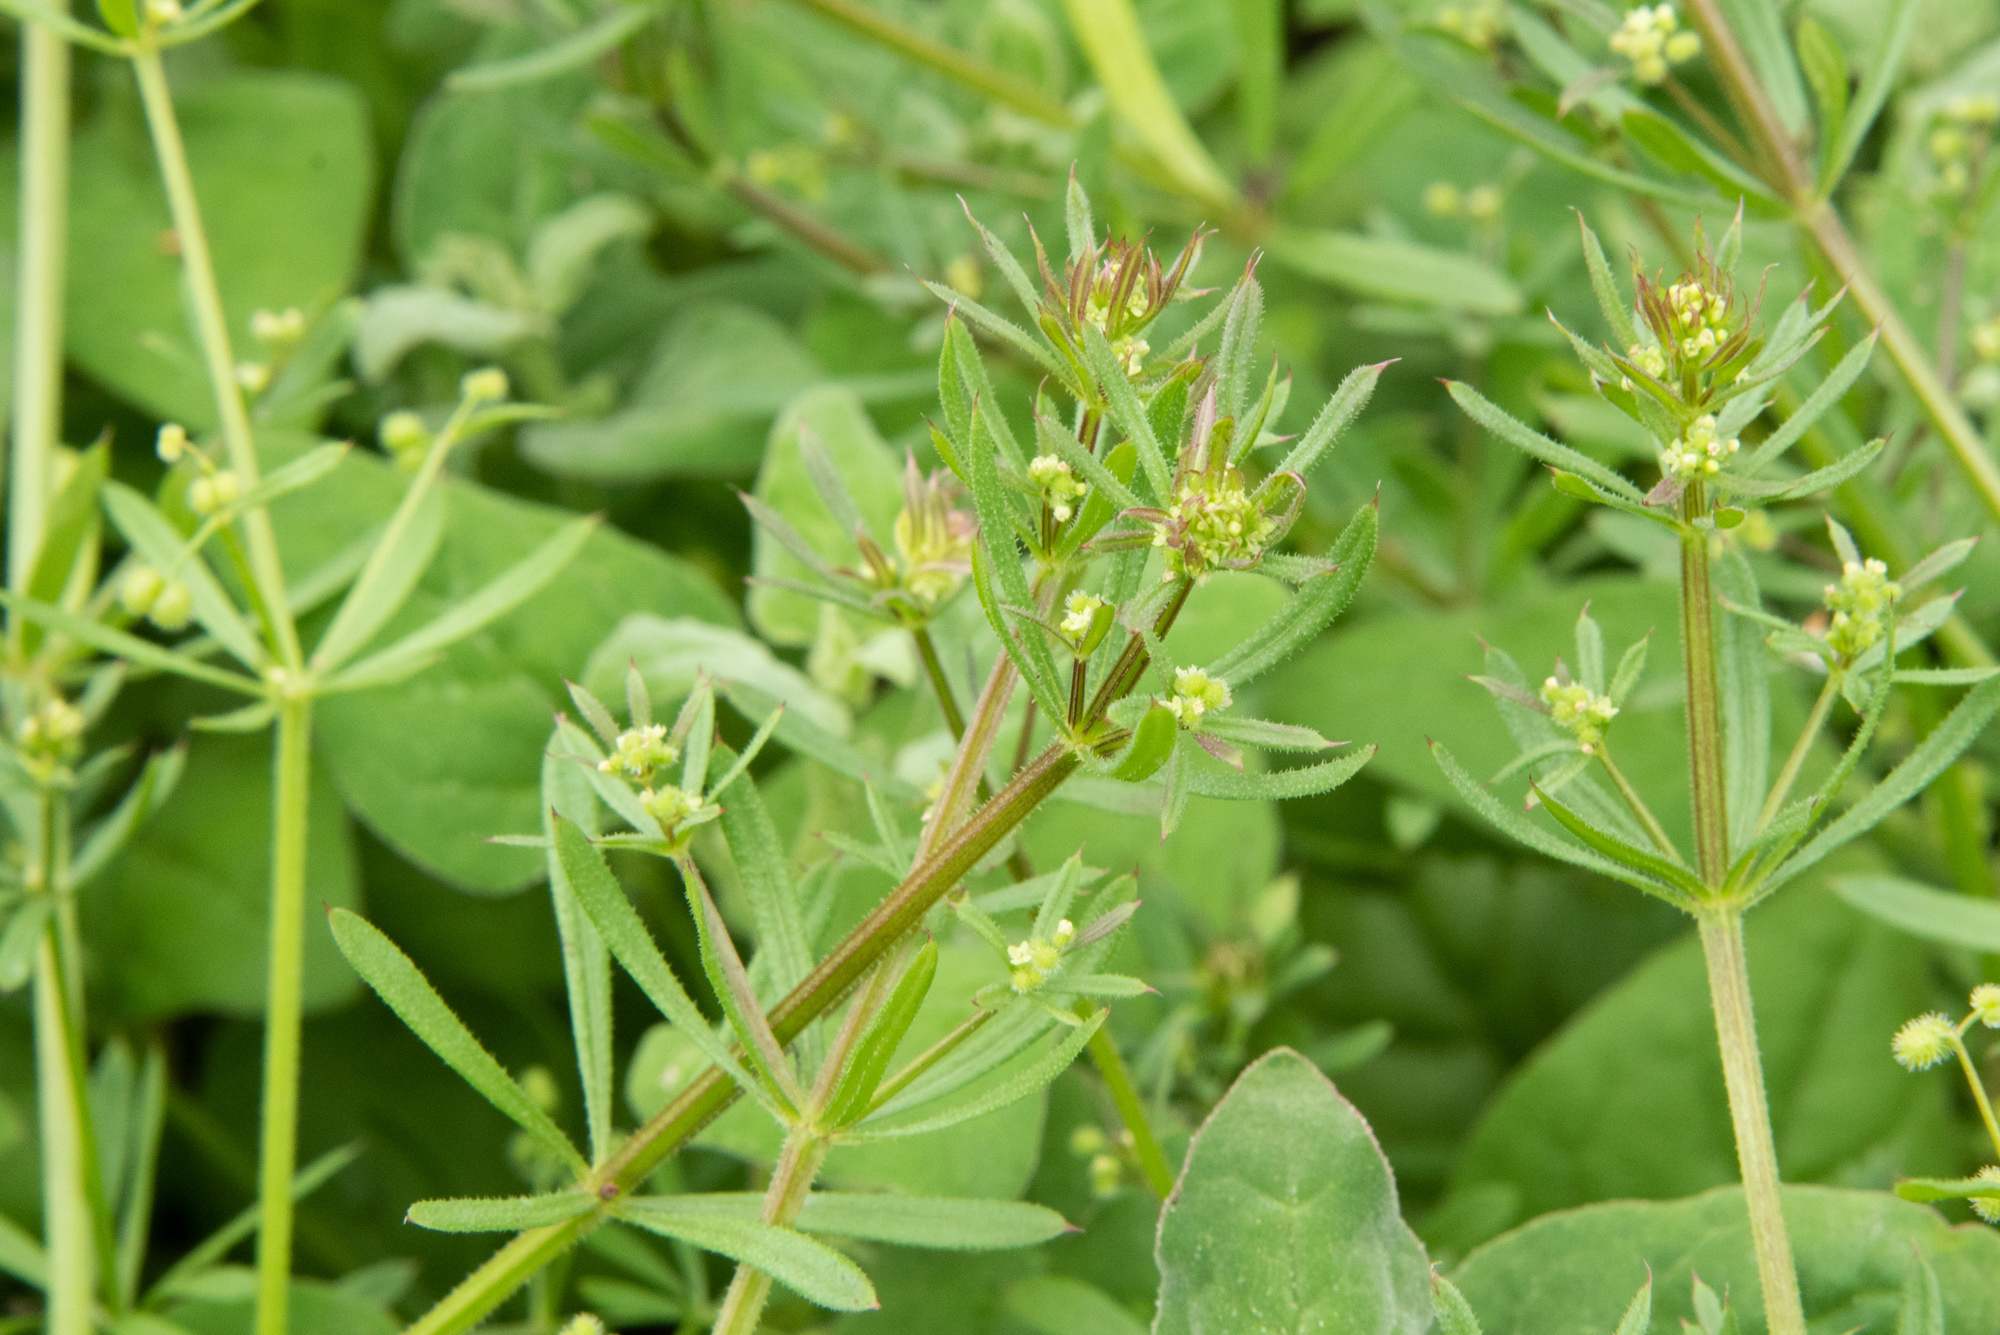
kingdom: Plantae
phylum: Tracheophyta
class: Magnoliopsida
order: Gentianales
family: Rubiaceae
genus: Galium
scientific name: Galium spurium
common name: False cleavers
